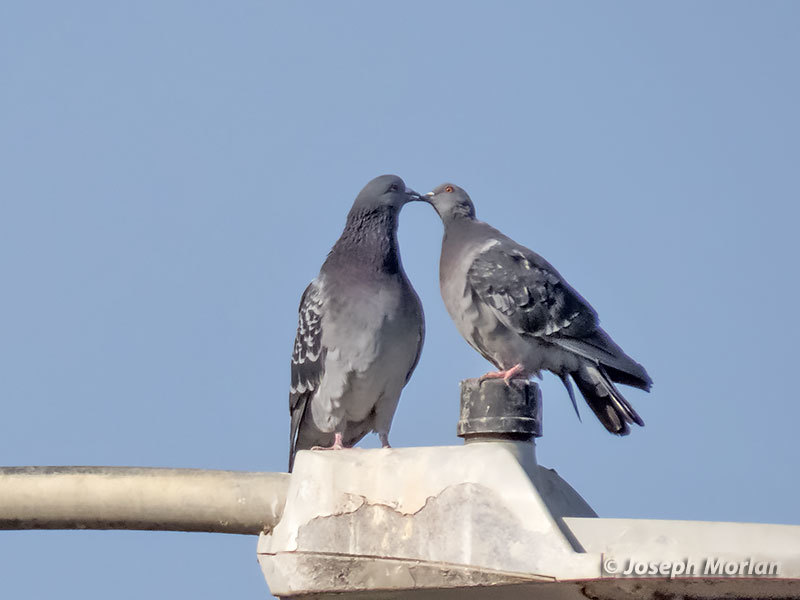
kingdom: Animalia
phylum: Chordata
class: Aves
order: Columbiformes
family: Columbidae
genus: Columba
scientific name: Columba livia
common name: Rock pigeon
